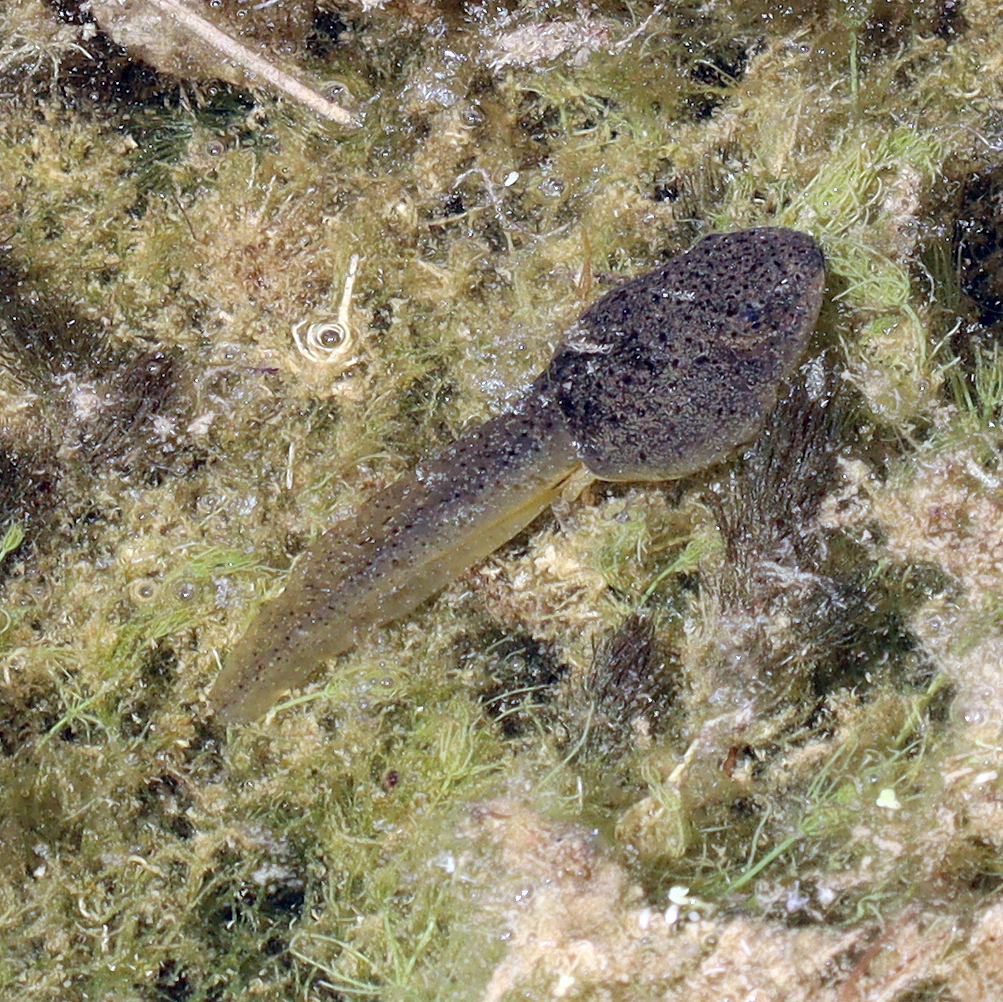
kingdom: Animalia
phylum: Chordata
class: Amphibia
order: Anura
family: Ranidae
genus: Lithobates
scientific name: Lithobates catesbeianus
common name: American bullfrog
